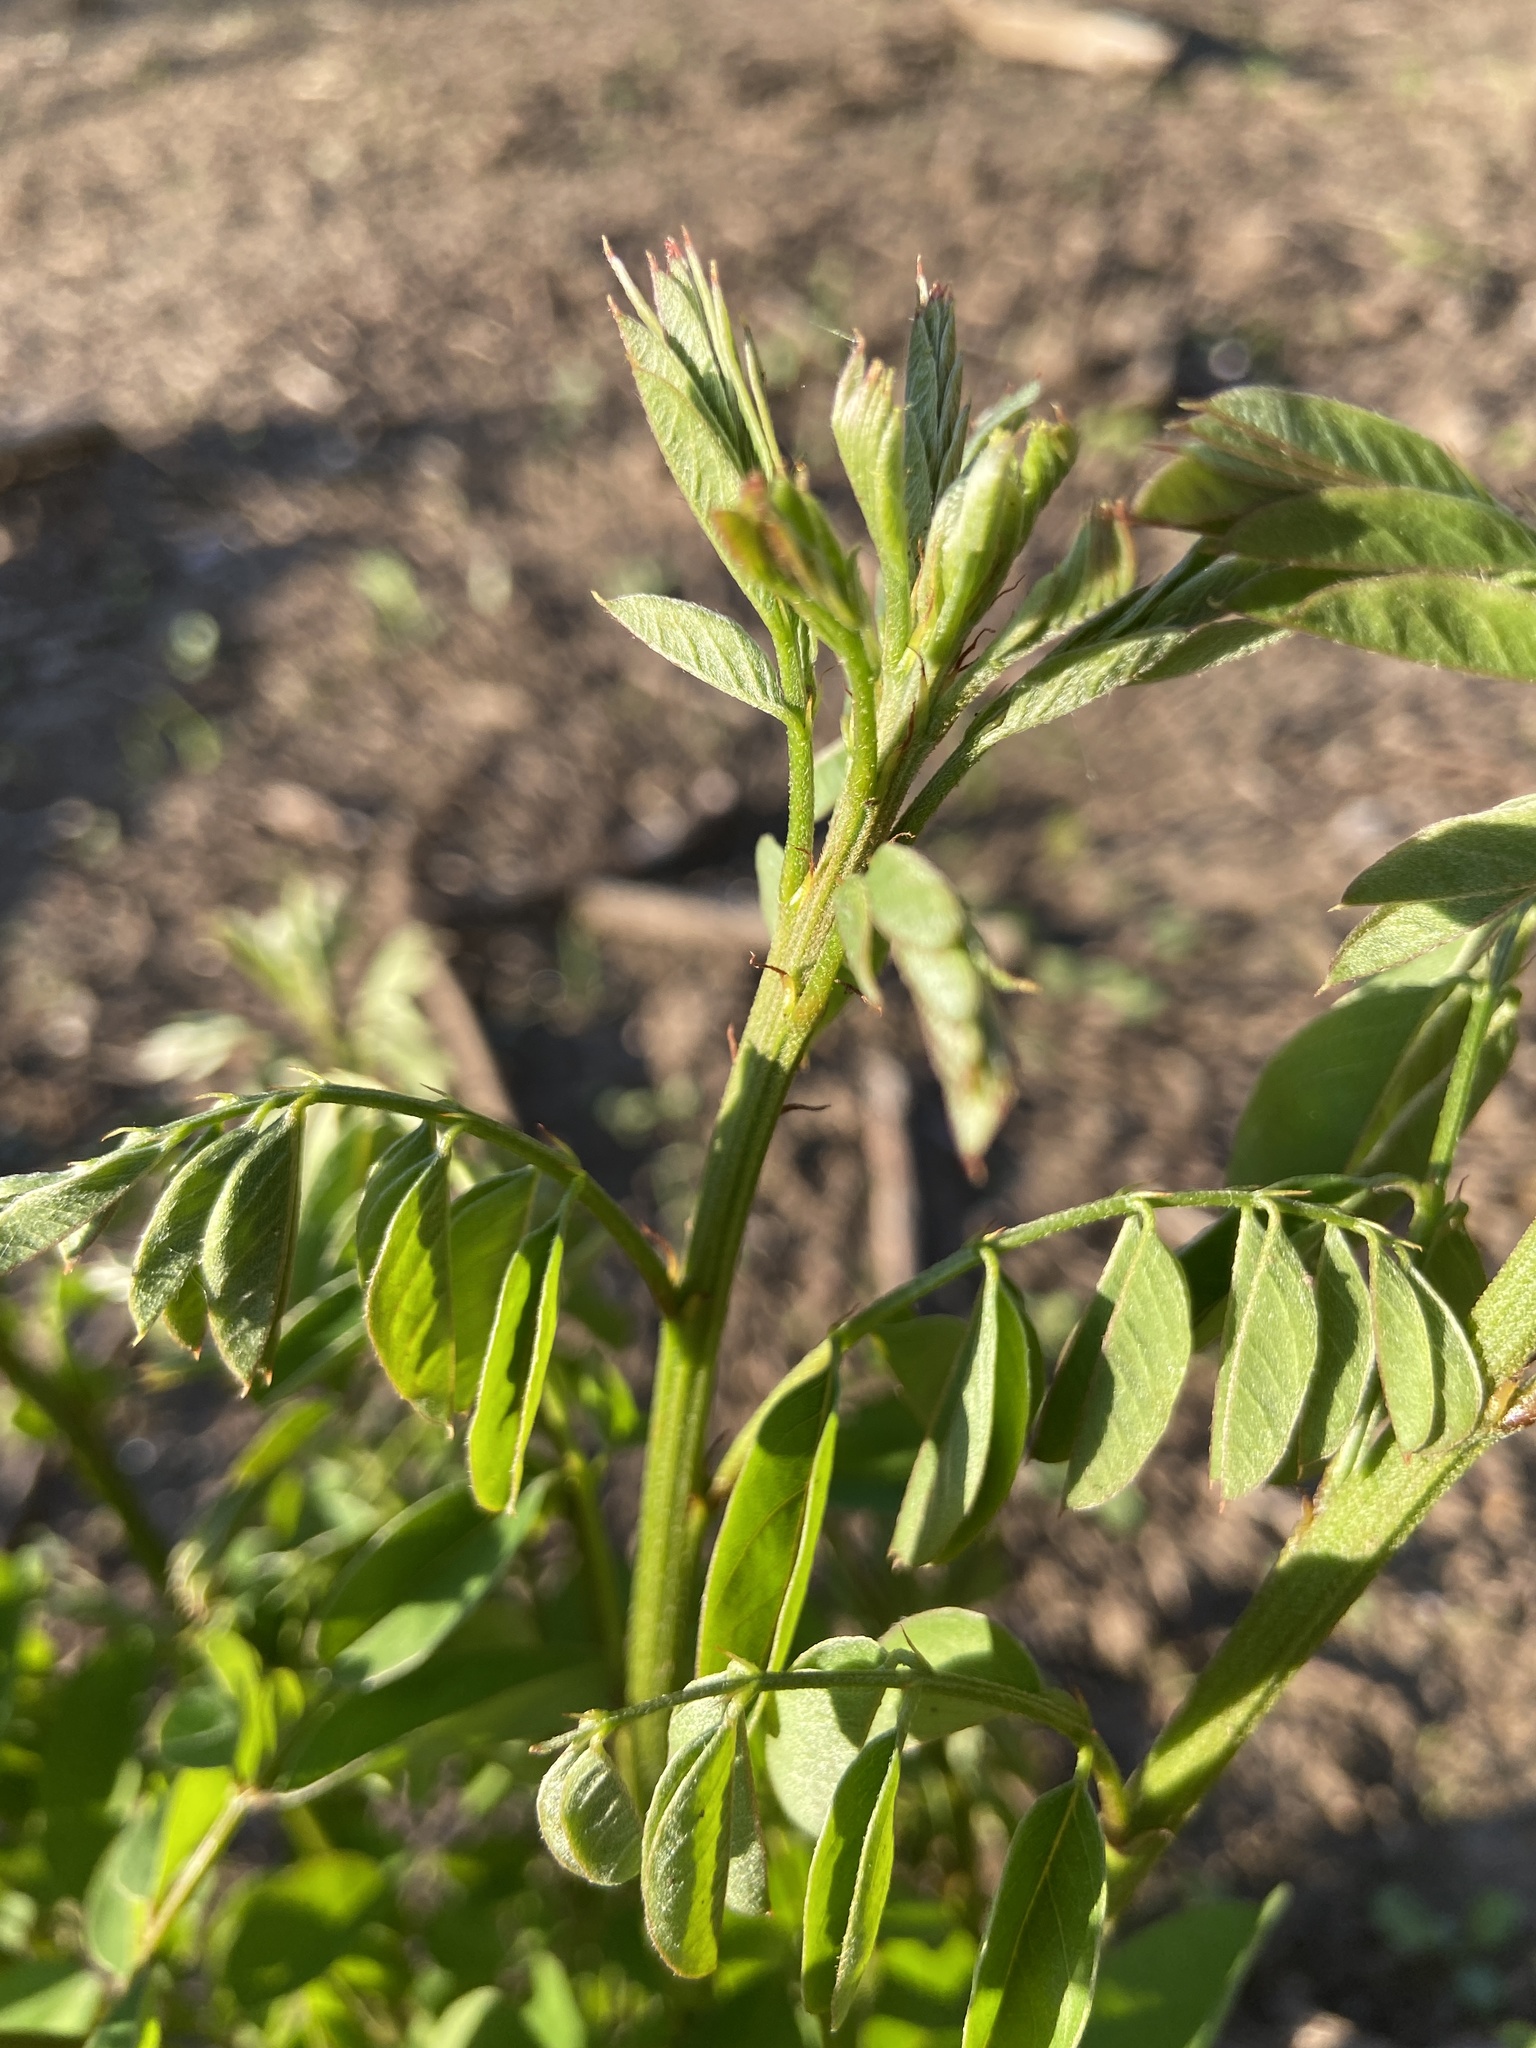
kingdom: Plantae
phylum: Tracheophyta
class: Magnoliopsida
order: Fabales
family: Fabaceae
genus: Robinia
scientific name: Robinia pseudoacacia
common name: Black locust
